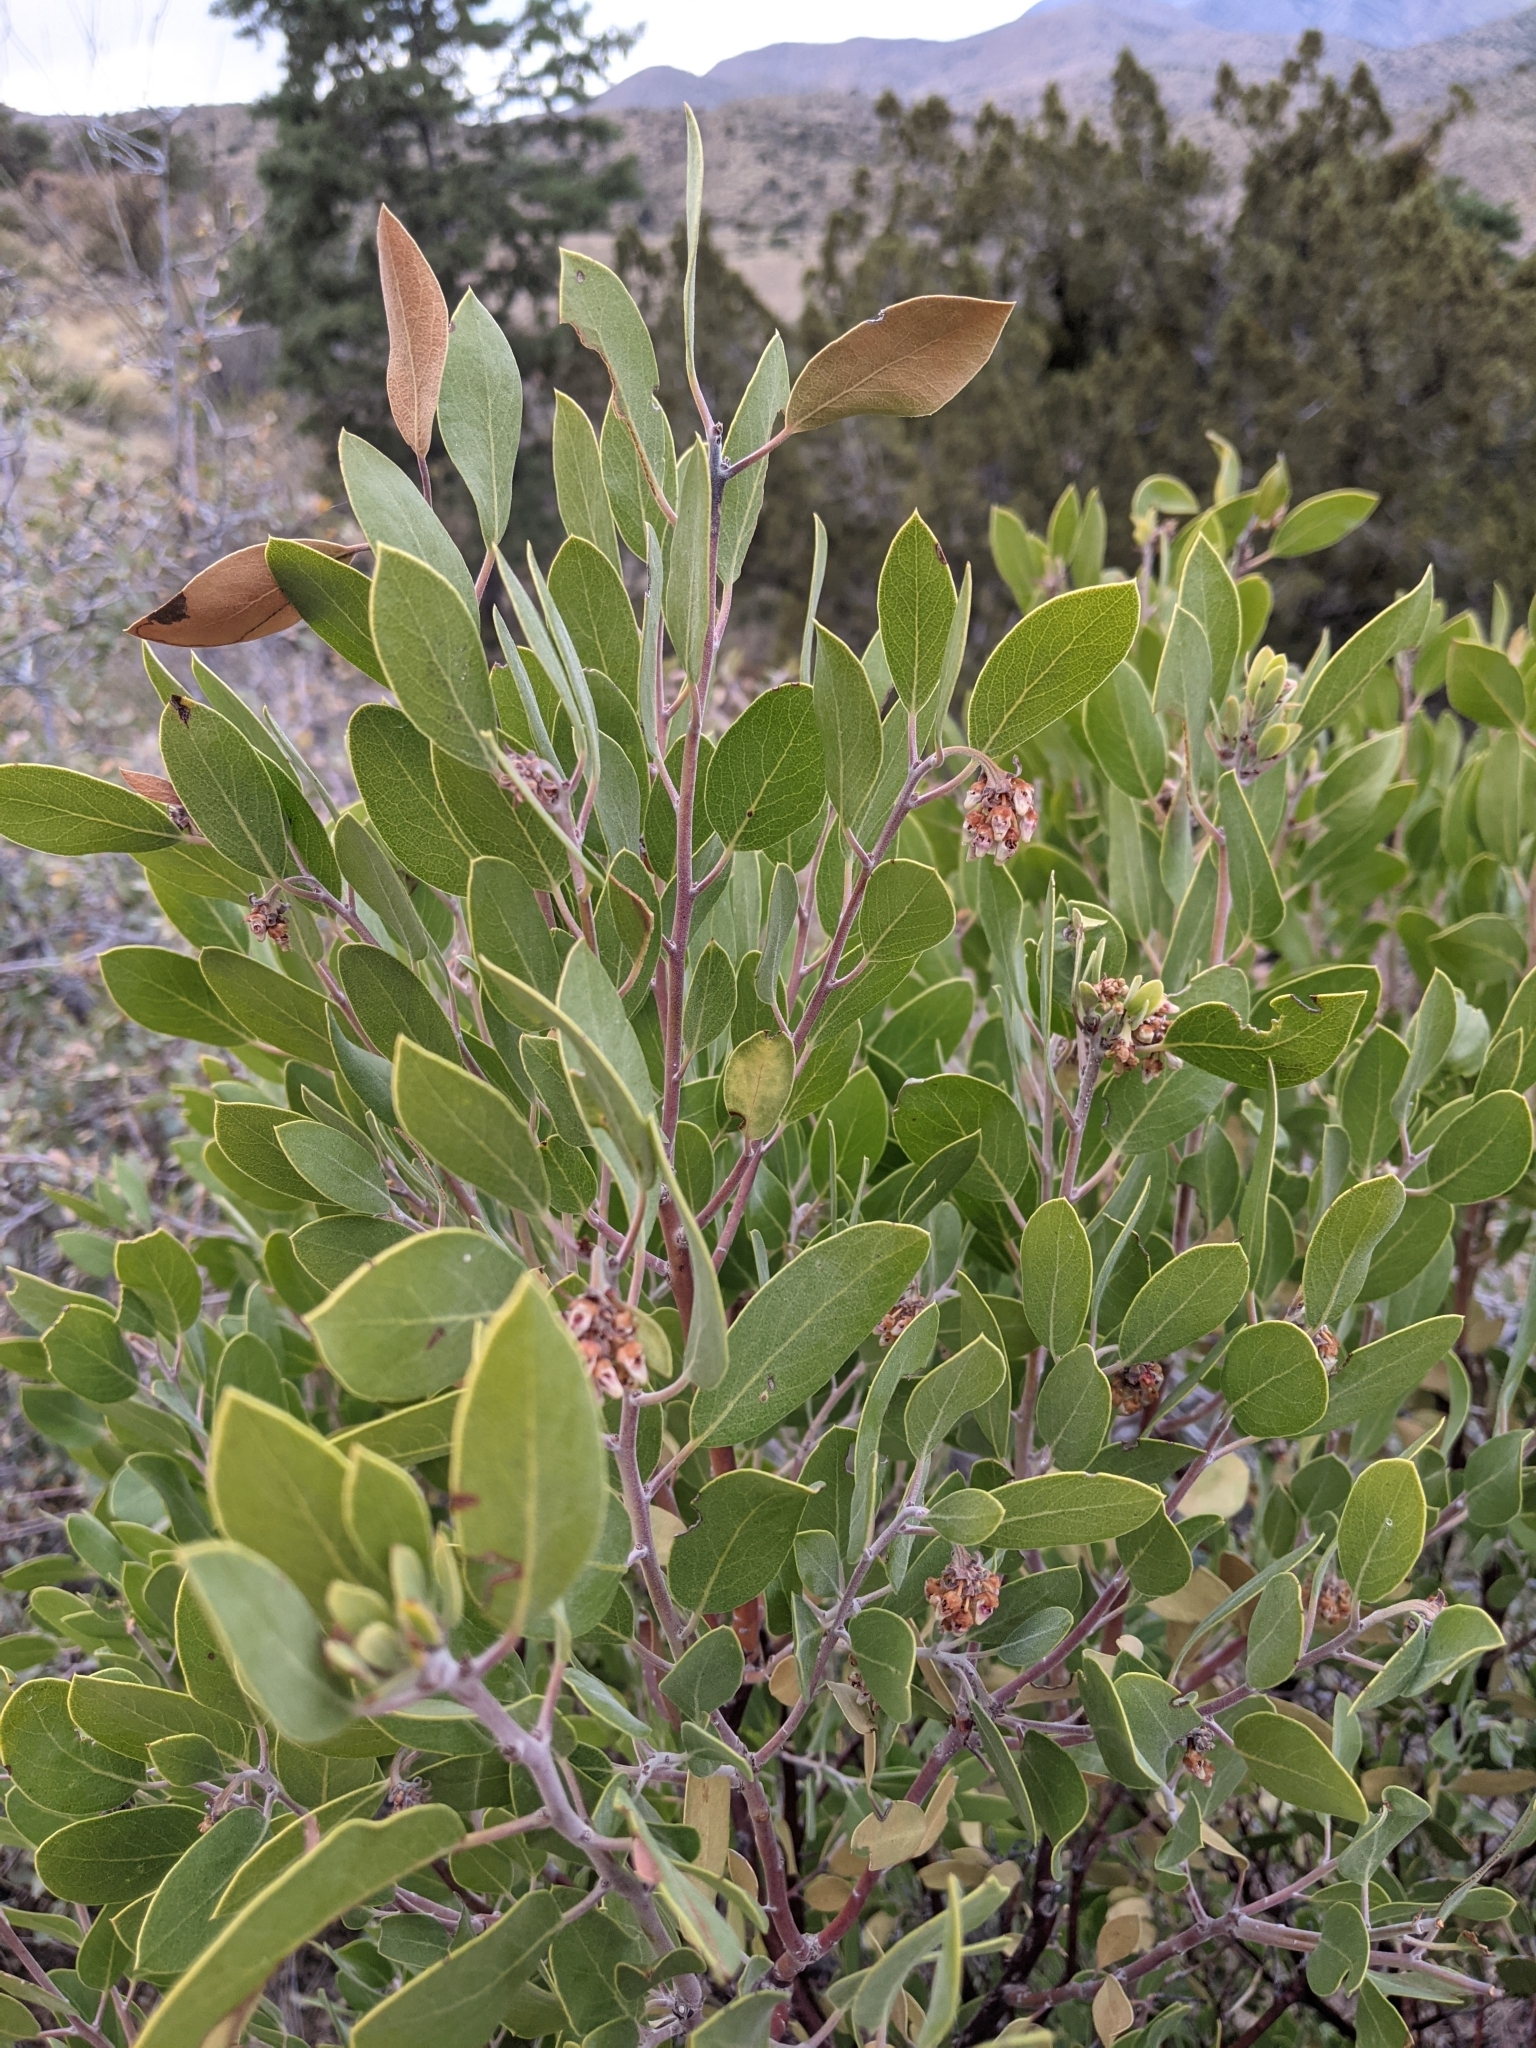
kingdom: Plantae
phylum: Tracheophyta
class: Magnoliopsida
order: Ericales
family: Ericaceae
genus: Arctostaphylos
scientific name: Arctostaphylos pungens
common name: Mexican manzanita
